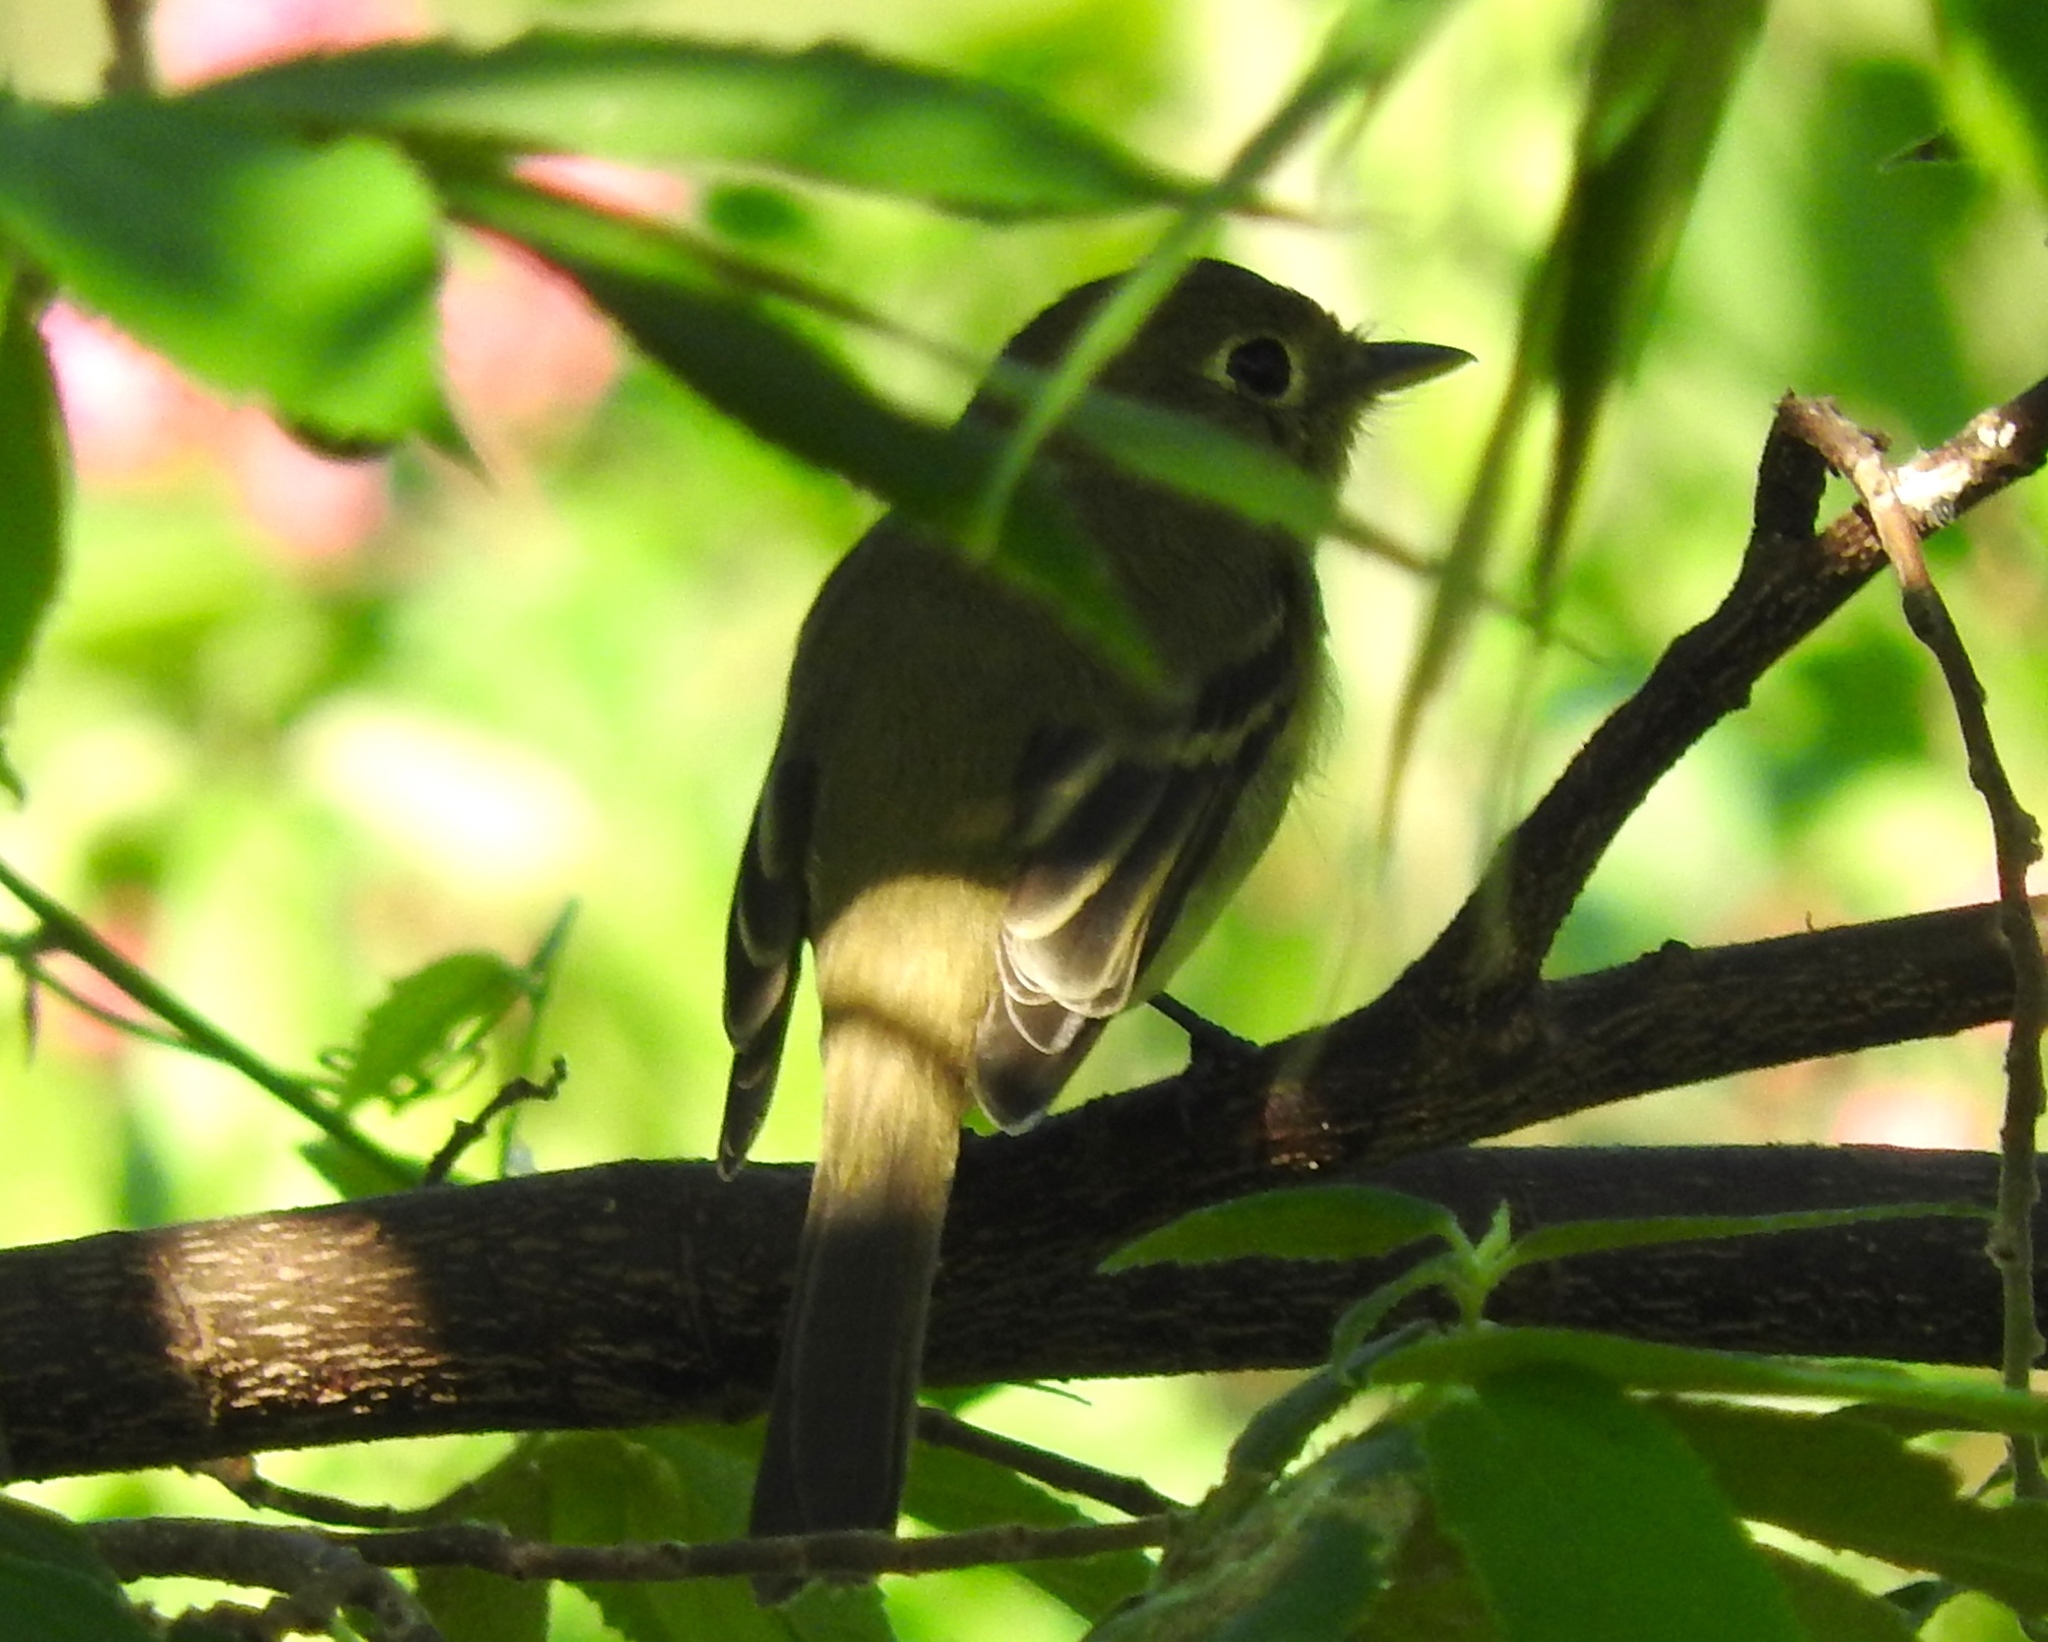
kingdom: Animalia
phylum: Chordata
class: Aves
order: Passeriformes
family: Tyrannidae
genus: Empidonax
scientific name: Empidonax
